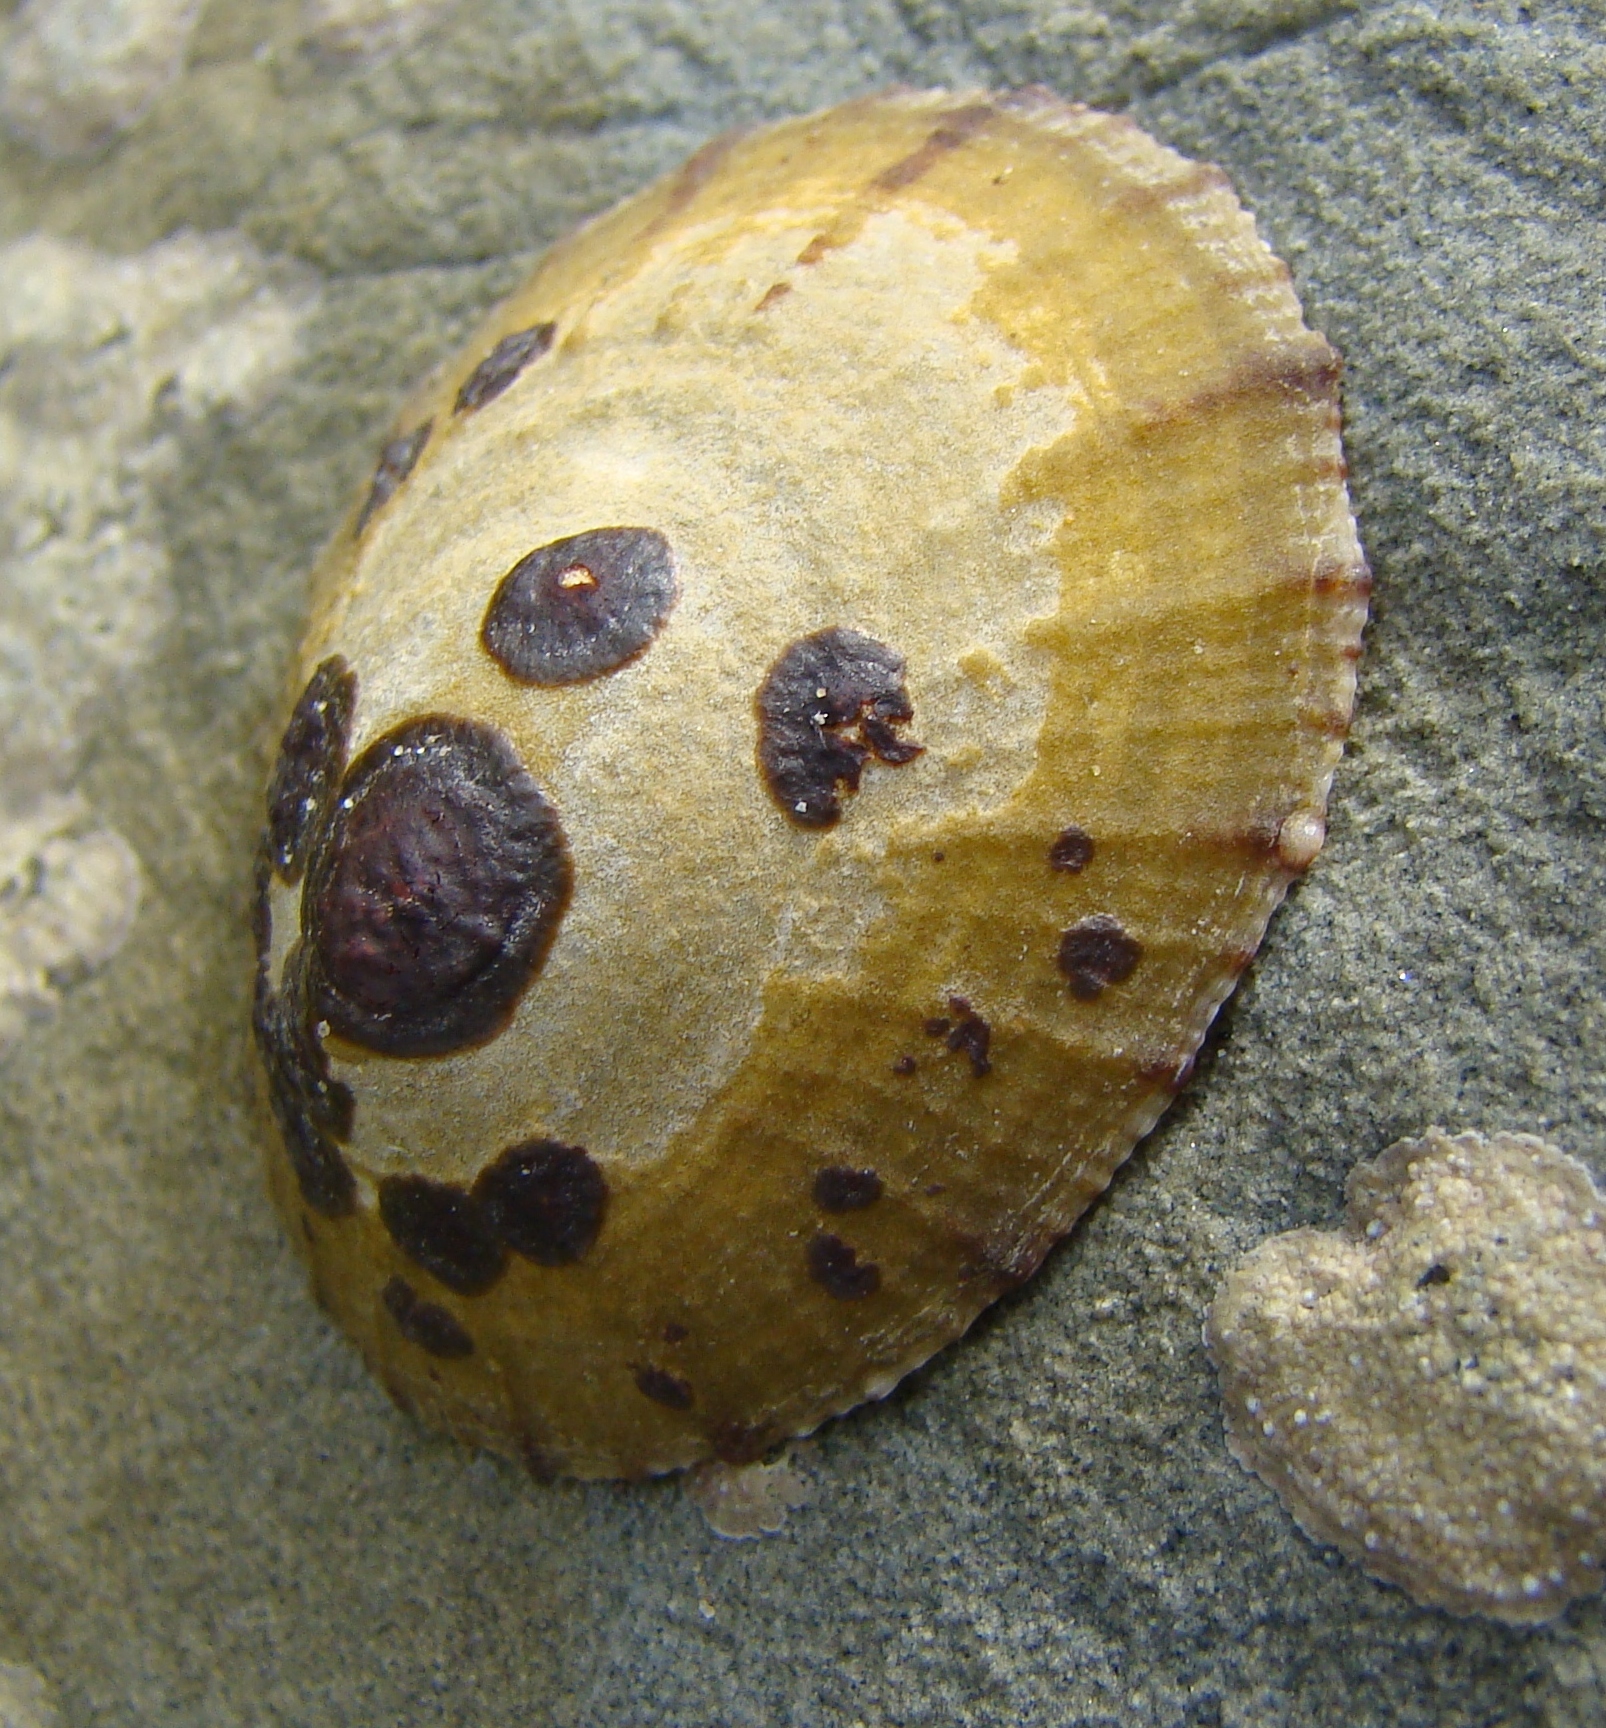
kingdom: Animalia
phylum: Mollusca
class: Gastropoda
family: Nacellidae
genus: Cellana
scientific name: Cellana radians
